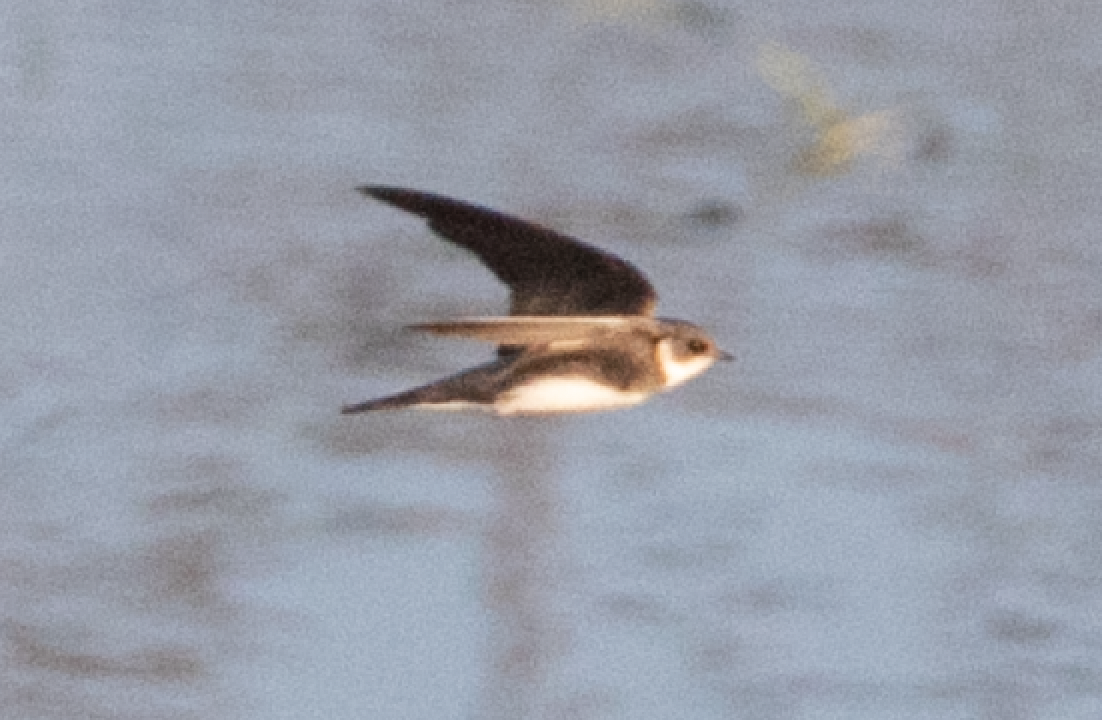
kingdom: Animalia
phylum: Chordata
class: Aves
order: Passeriformes
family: Hirundinidae
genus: Riparia
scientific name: Riparia riparia
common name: Sand martin
